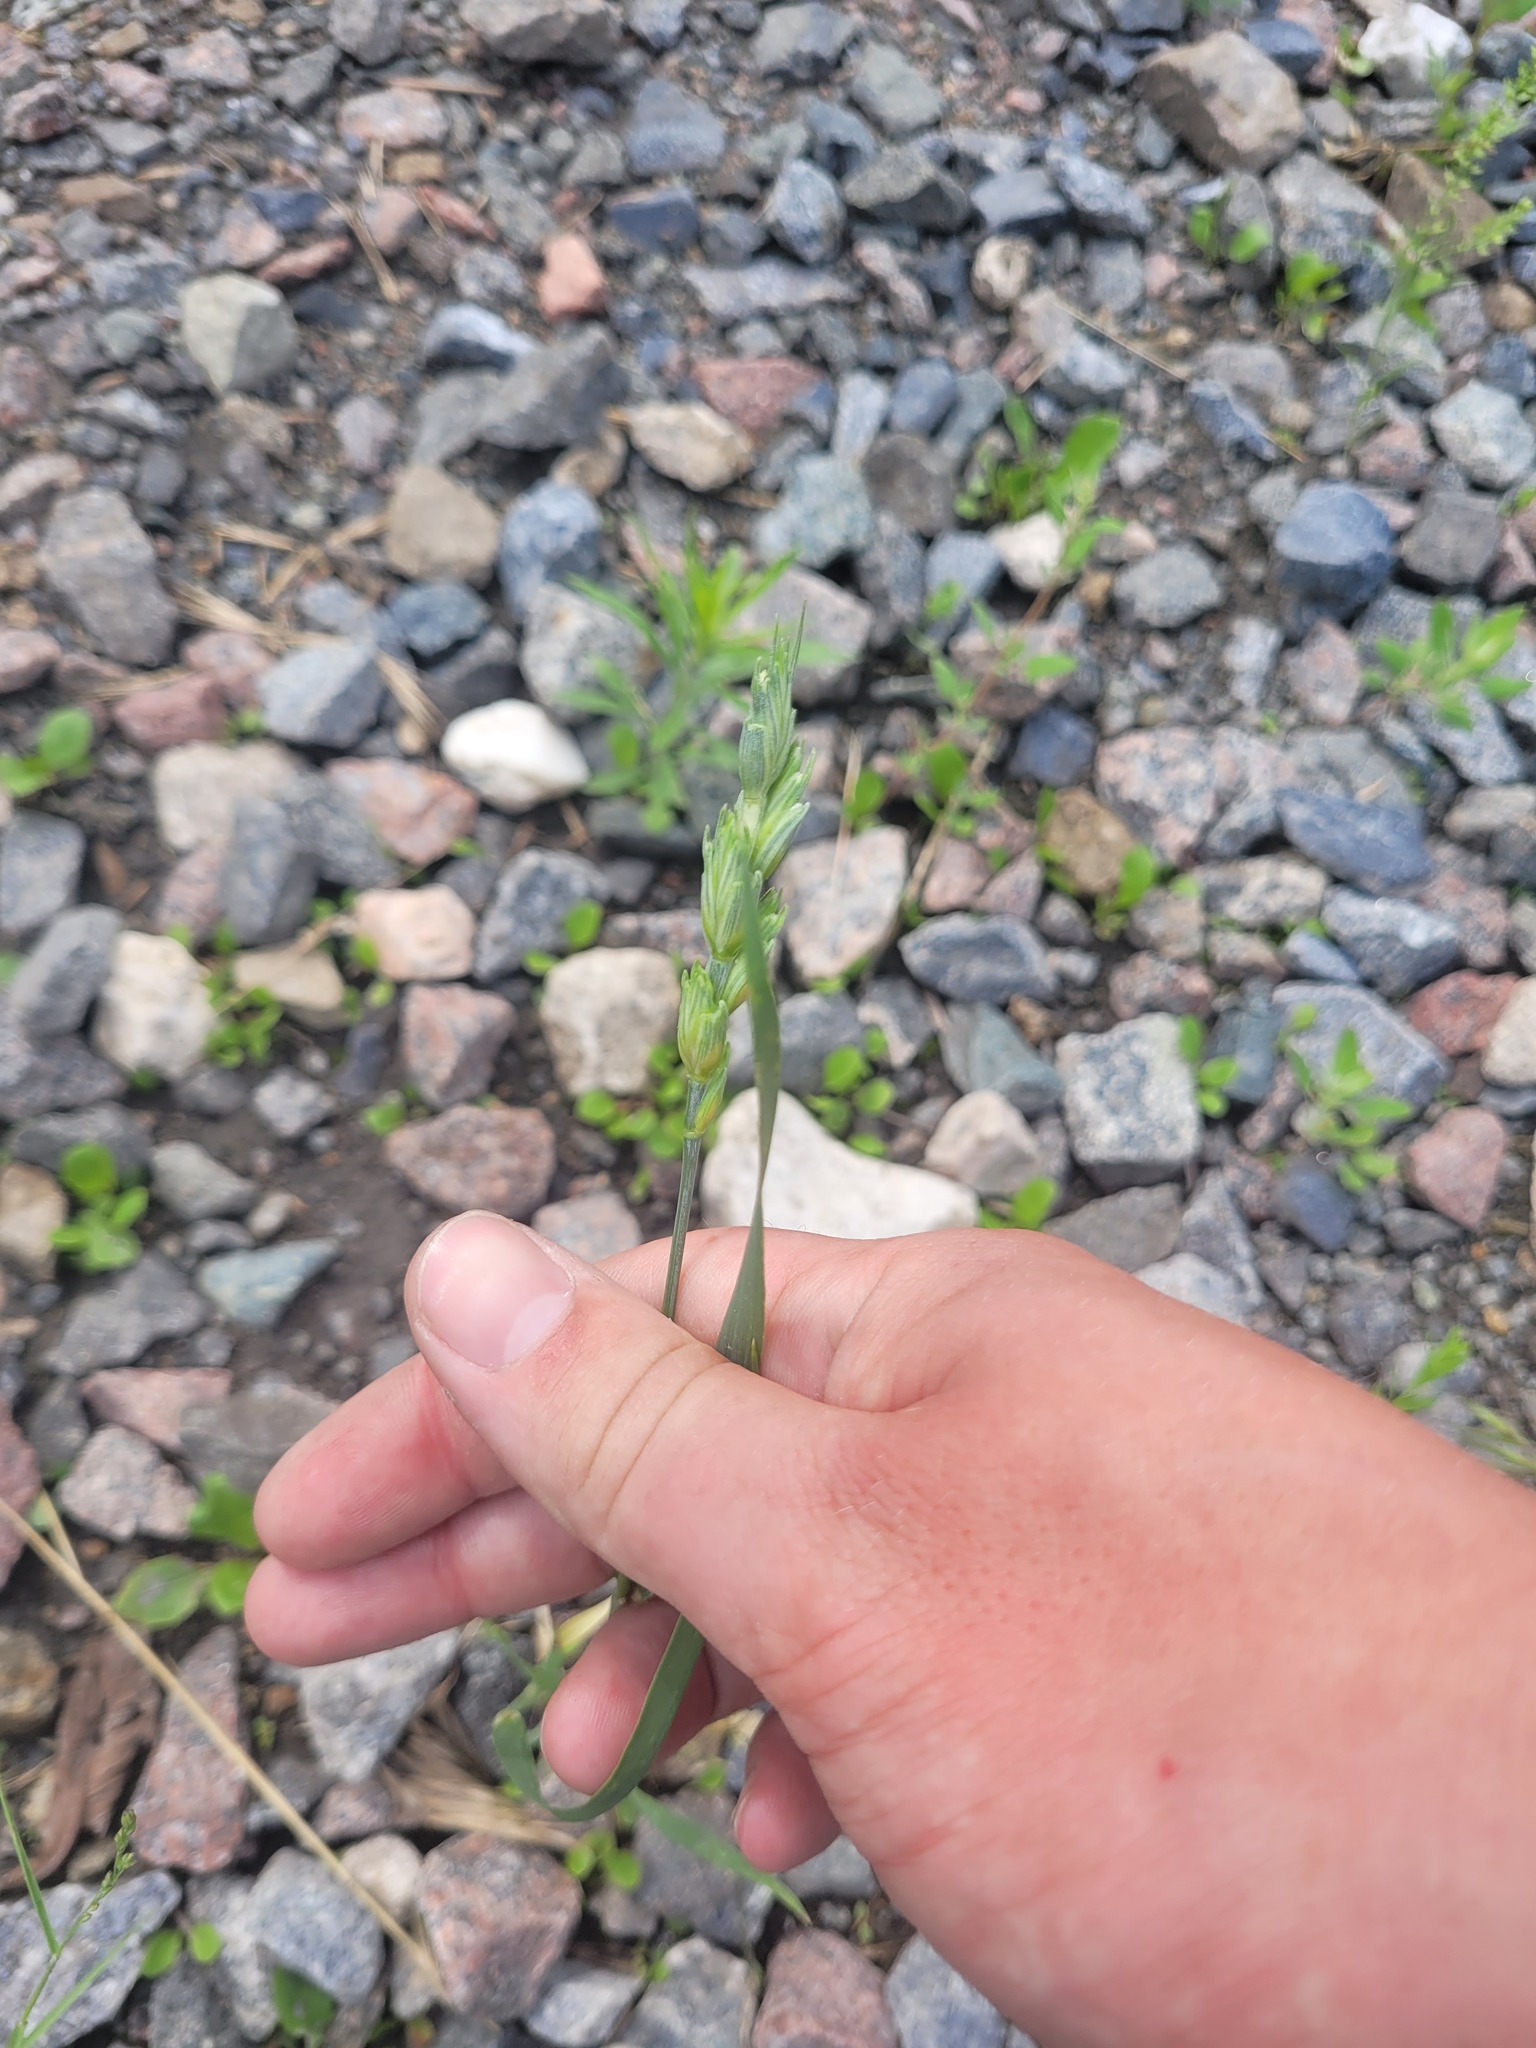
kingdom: Plantae
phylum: Tracheophyta
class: Liliopsida
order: Poales
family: Poaceae
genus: Triticum
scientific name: Triticum aestivum
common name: Common wheat
